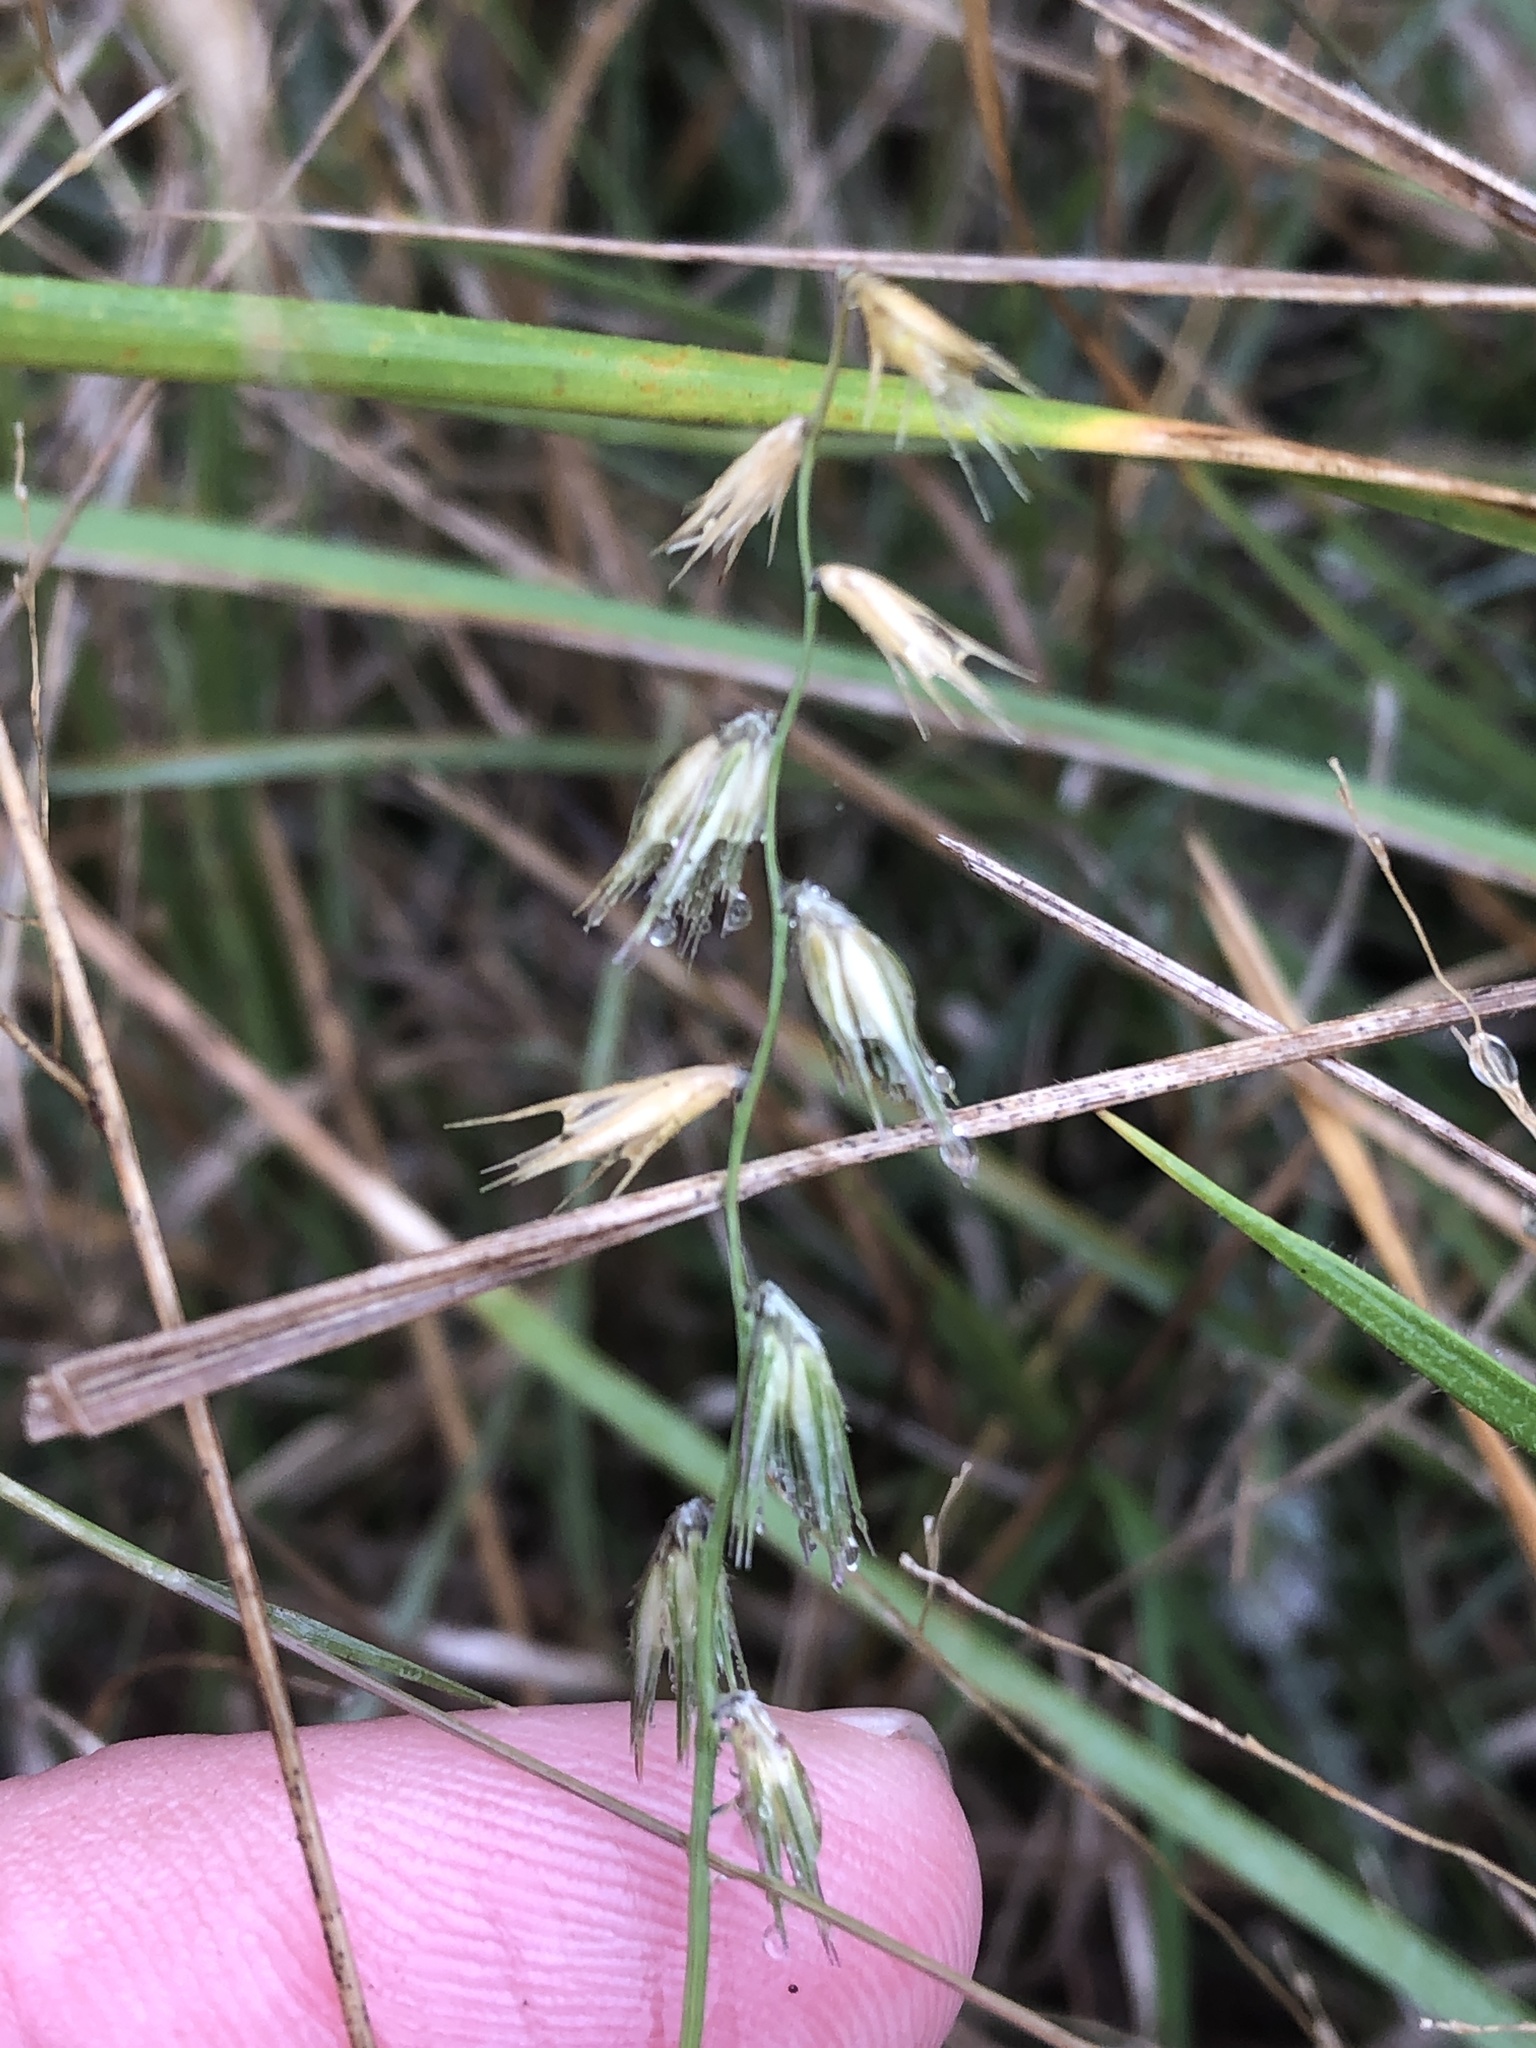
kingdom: Plantae
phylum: Tracheophyta
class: Liliopsida
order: Poales
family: Poaceae
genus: Bouteloua
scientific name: Bouteloua rigidiseta
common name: Texas grama
